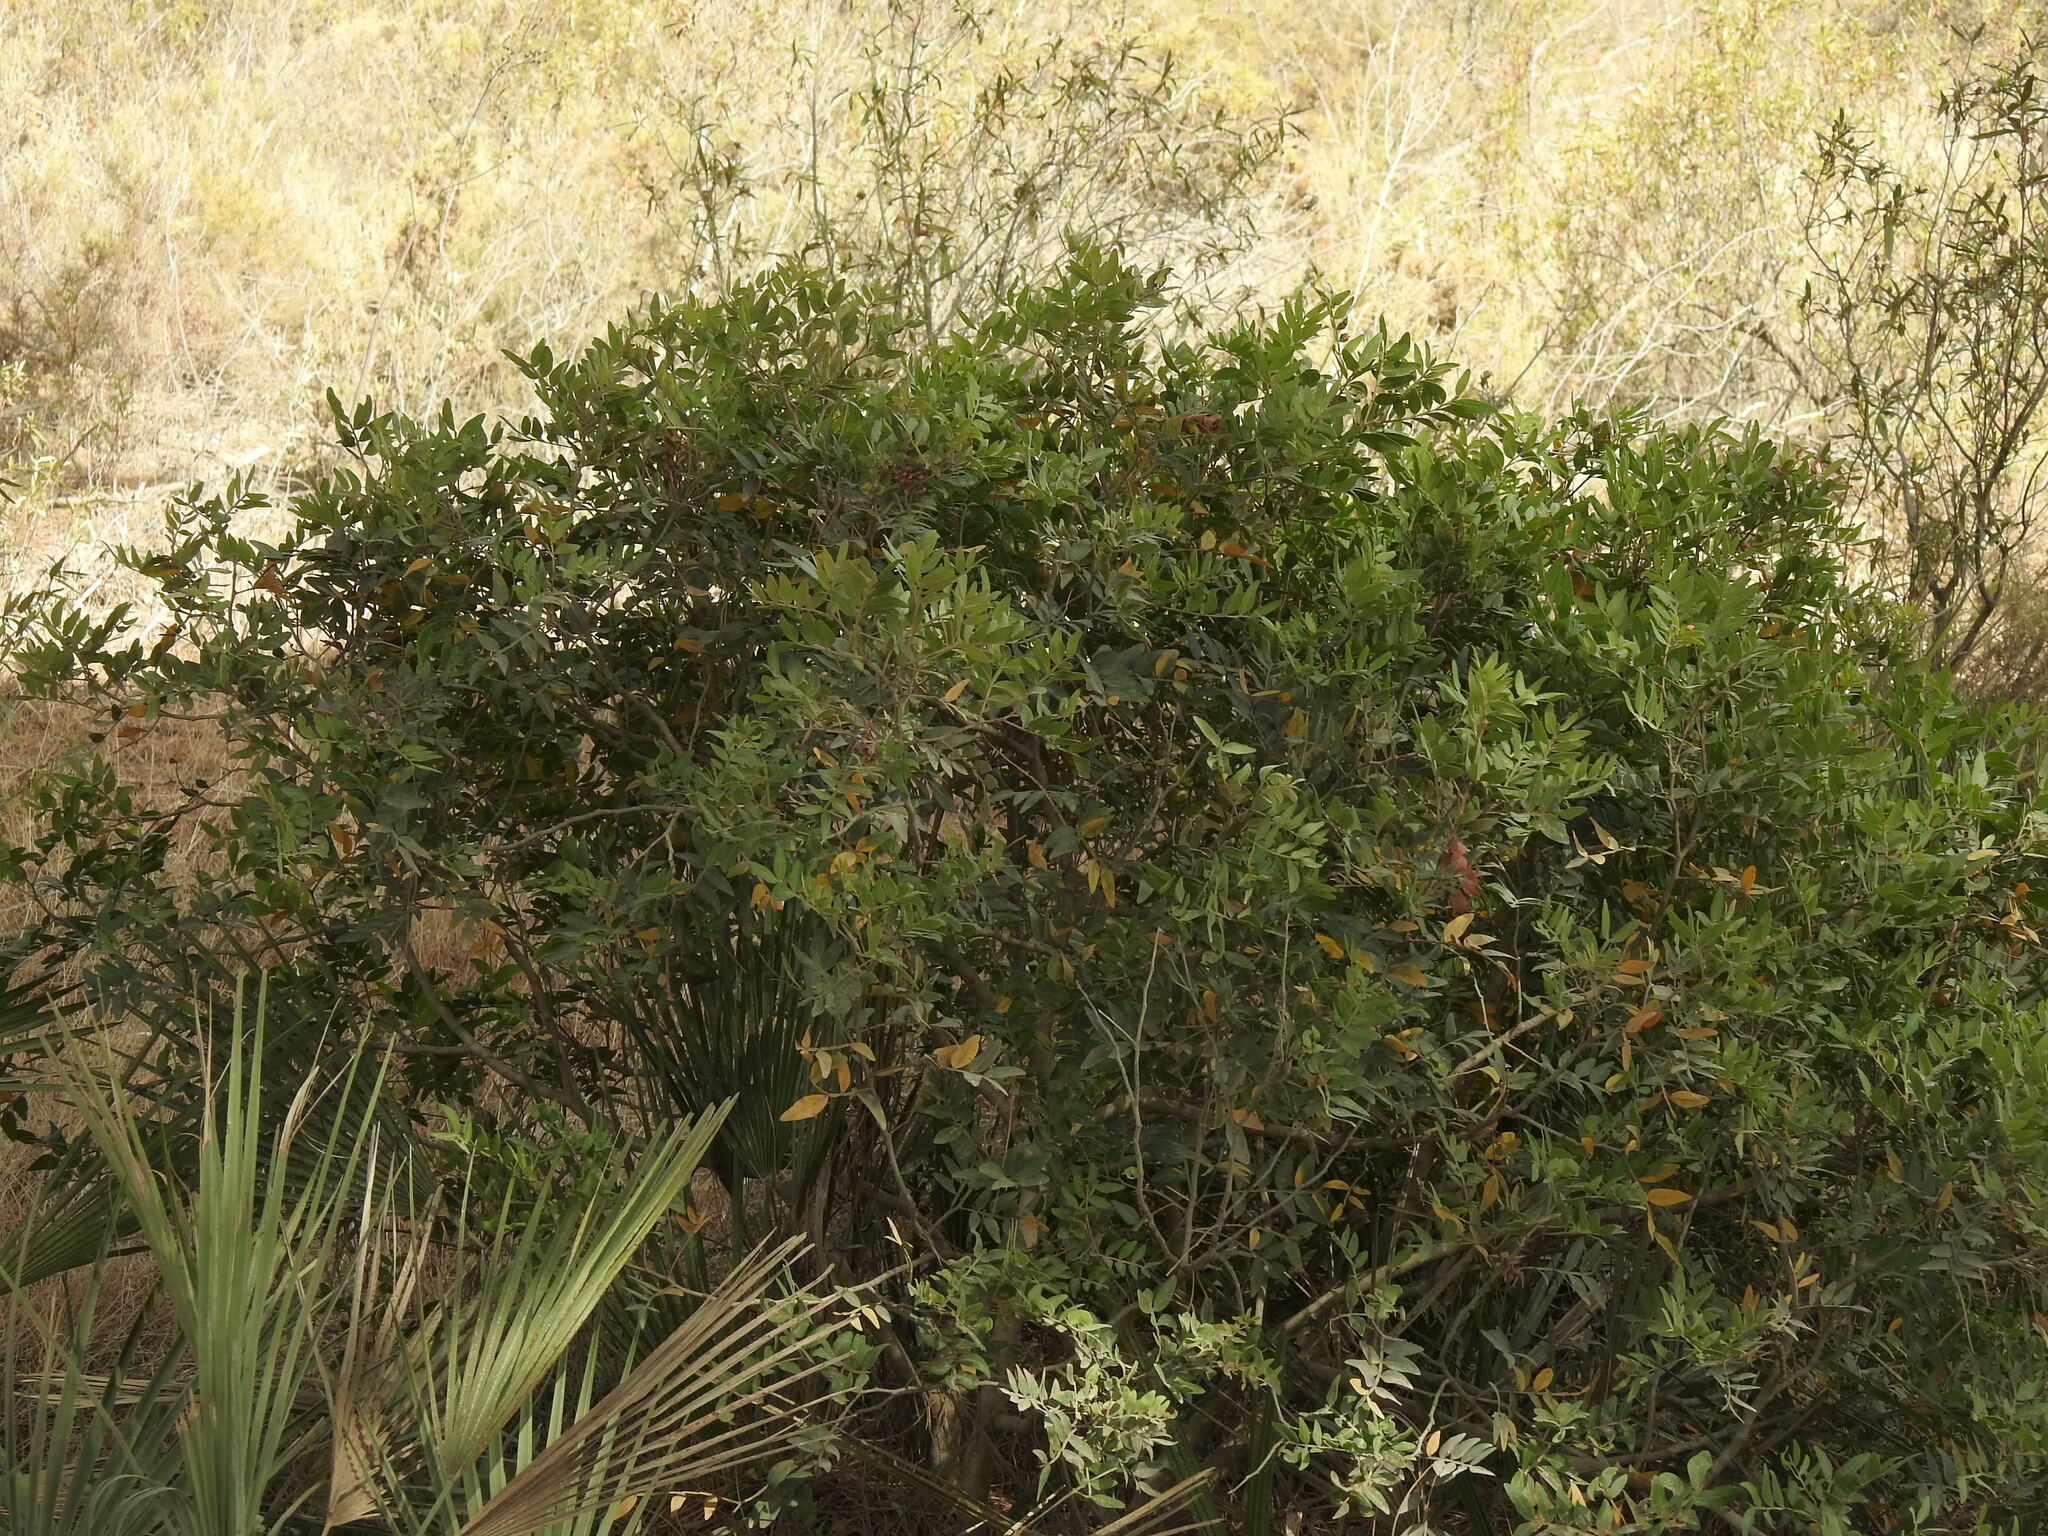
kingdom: Plantae
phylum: Tracheophyta
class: Magnoliopsida
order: Sapindales
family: Anacardiaceae
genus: Pistacia
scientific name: Pistacia lentiscus
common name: Lentisk
